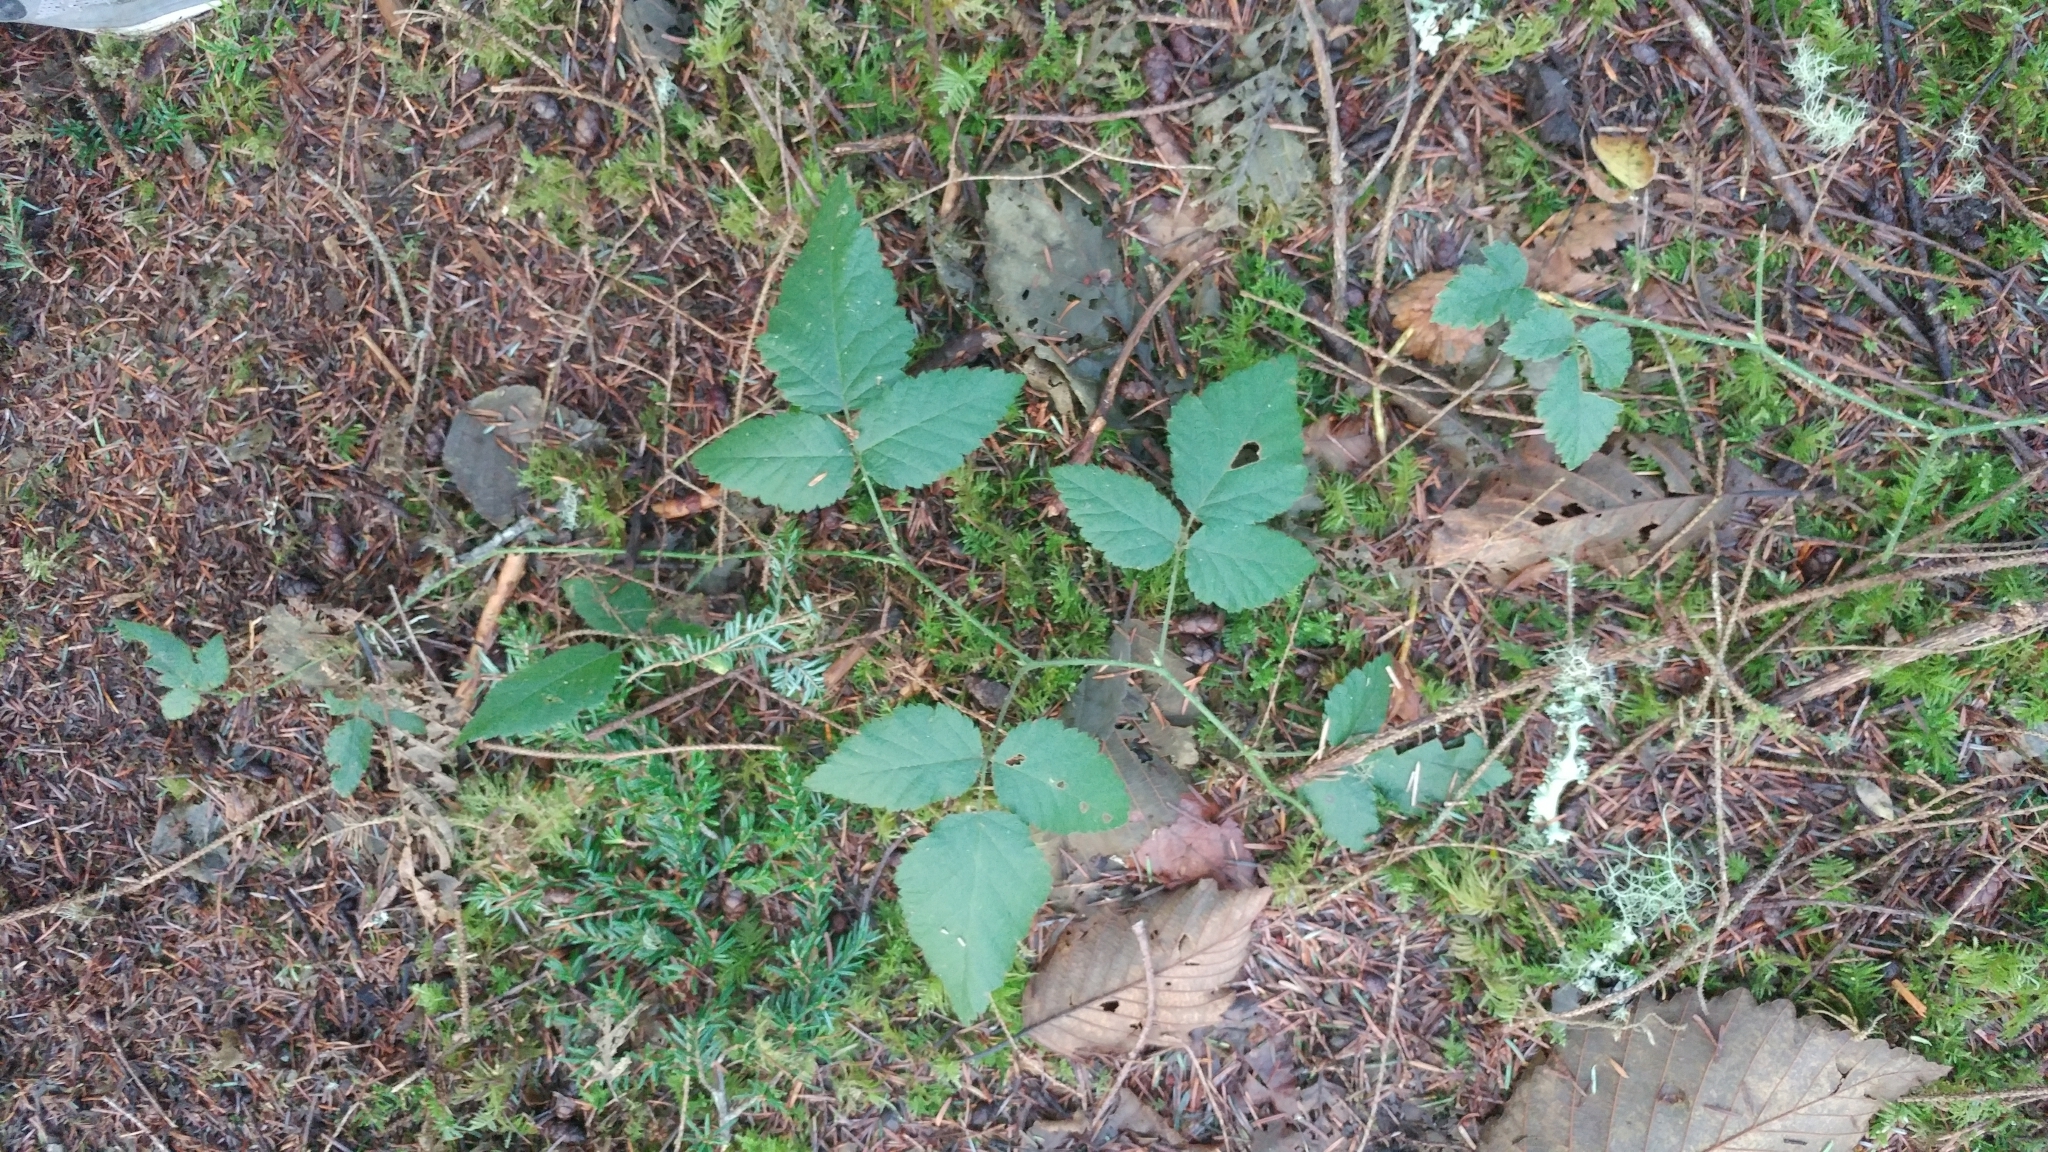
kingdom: Plantae
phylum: Tracheophyta
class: Magnoliopsida
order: Rosales
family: Rosaceae
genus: Rubus
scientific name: Rubus ursinus
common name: Pacific blackberry
